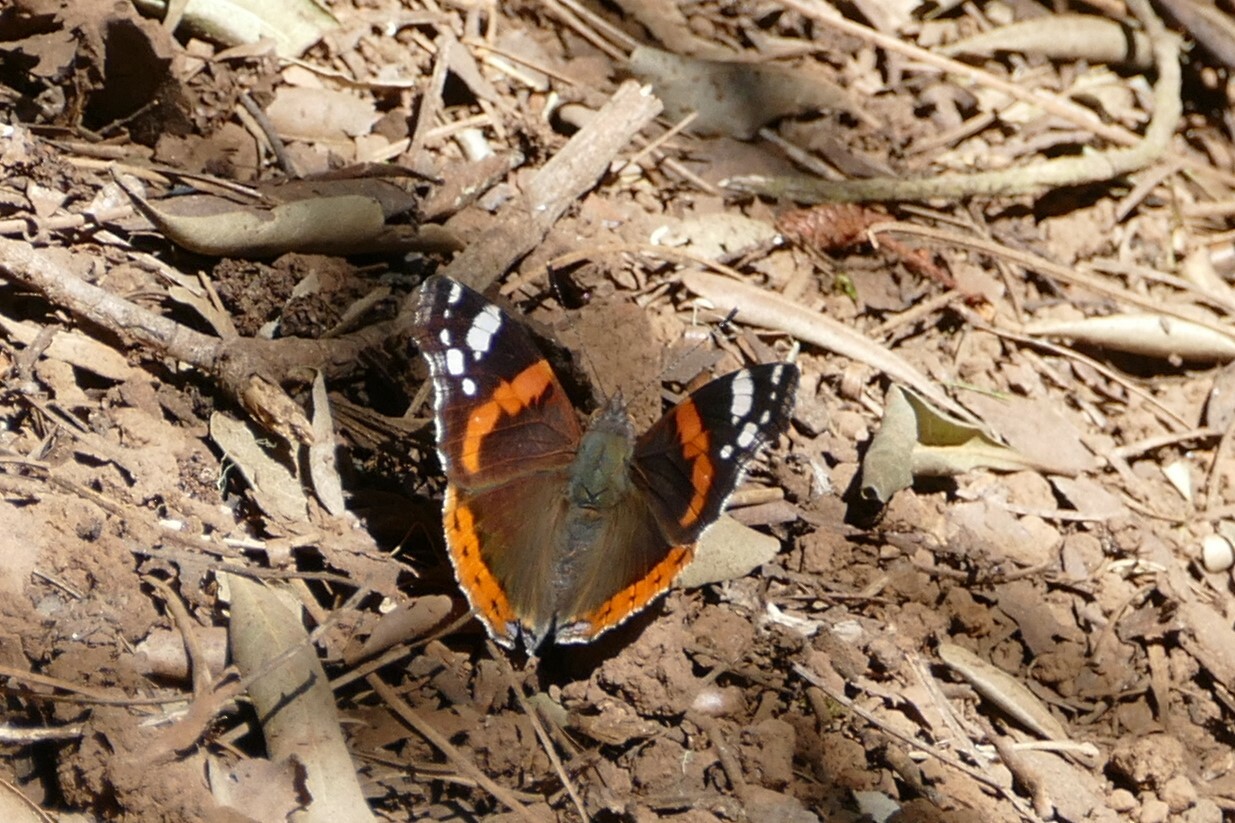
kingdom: Animalia
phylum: Arthropoda
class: Insecta
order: Lepidoptera
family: Nymphalidae
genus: Vanessa
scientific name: Vanessa atalanta
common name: Red admiral
